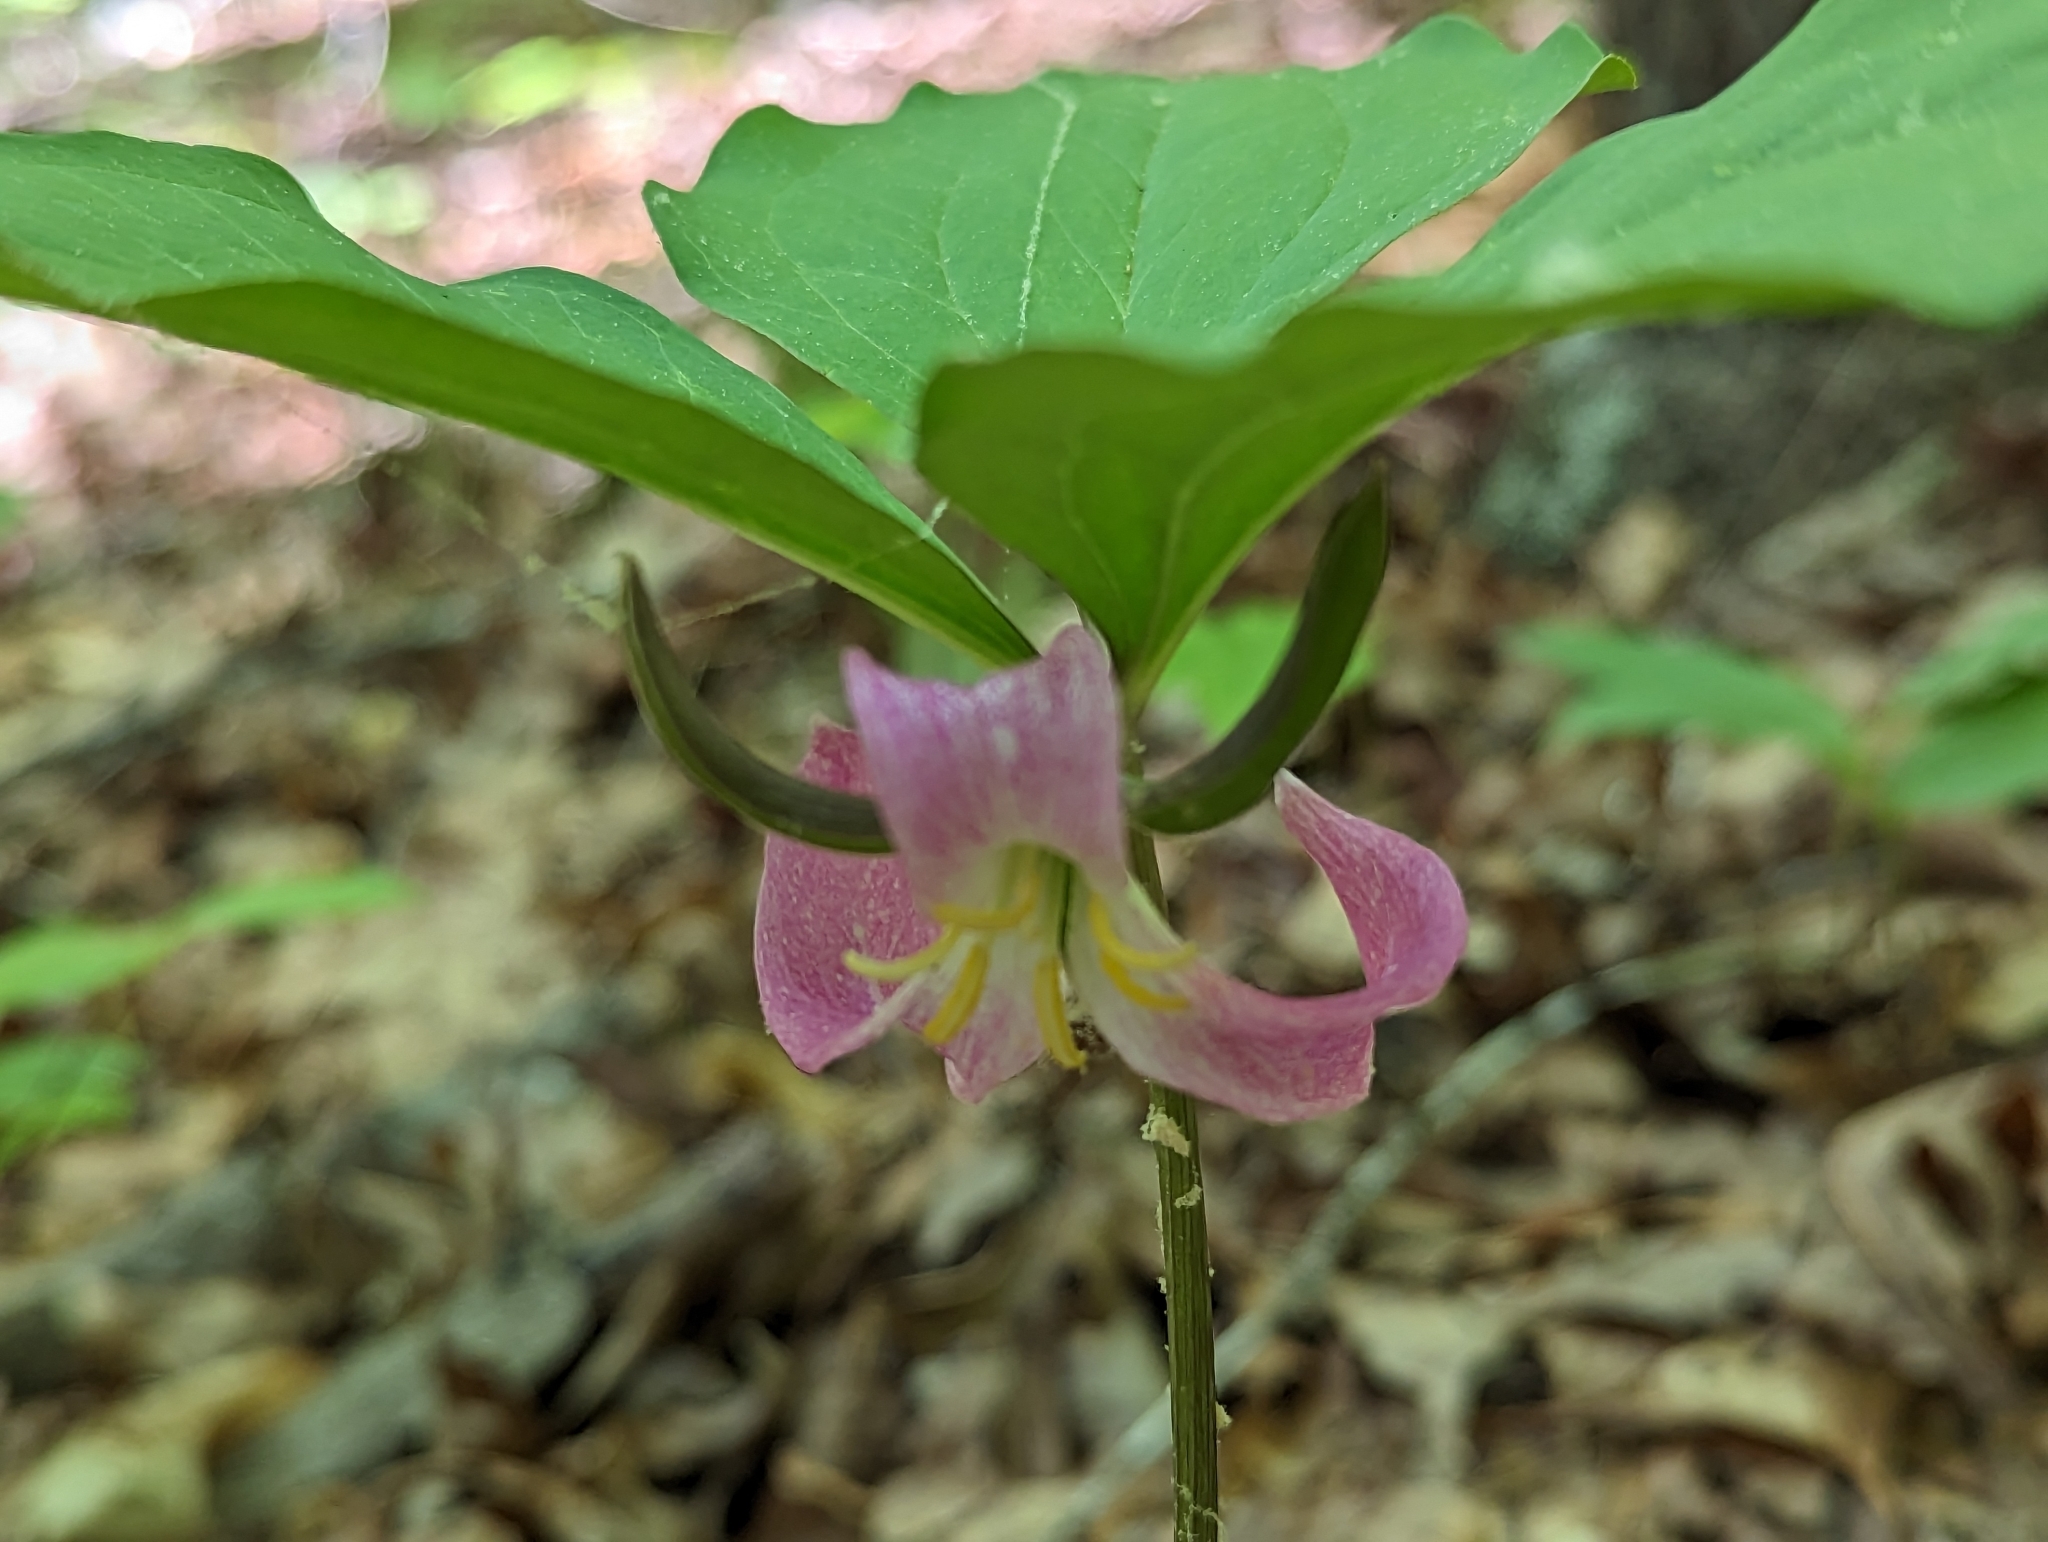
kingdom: Plantae
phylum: Tracheophyta
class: Liliopsida
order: Liliales
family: Melanthiaceae
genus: Trillium
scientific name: Trillium catesbaei
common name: Bashful trillium
